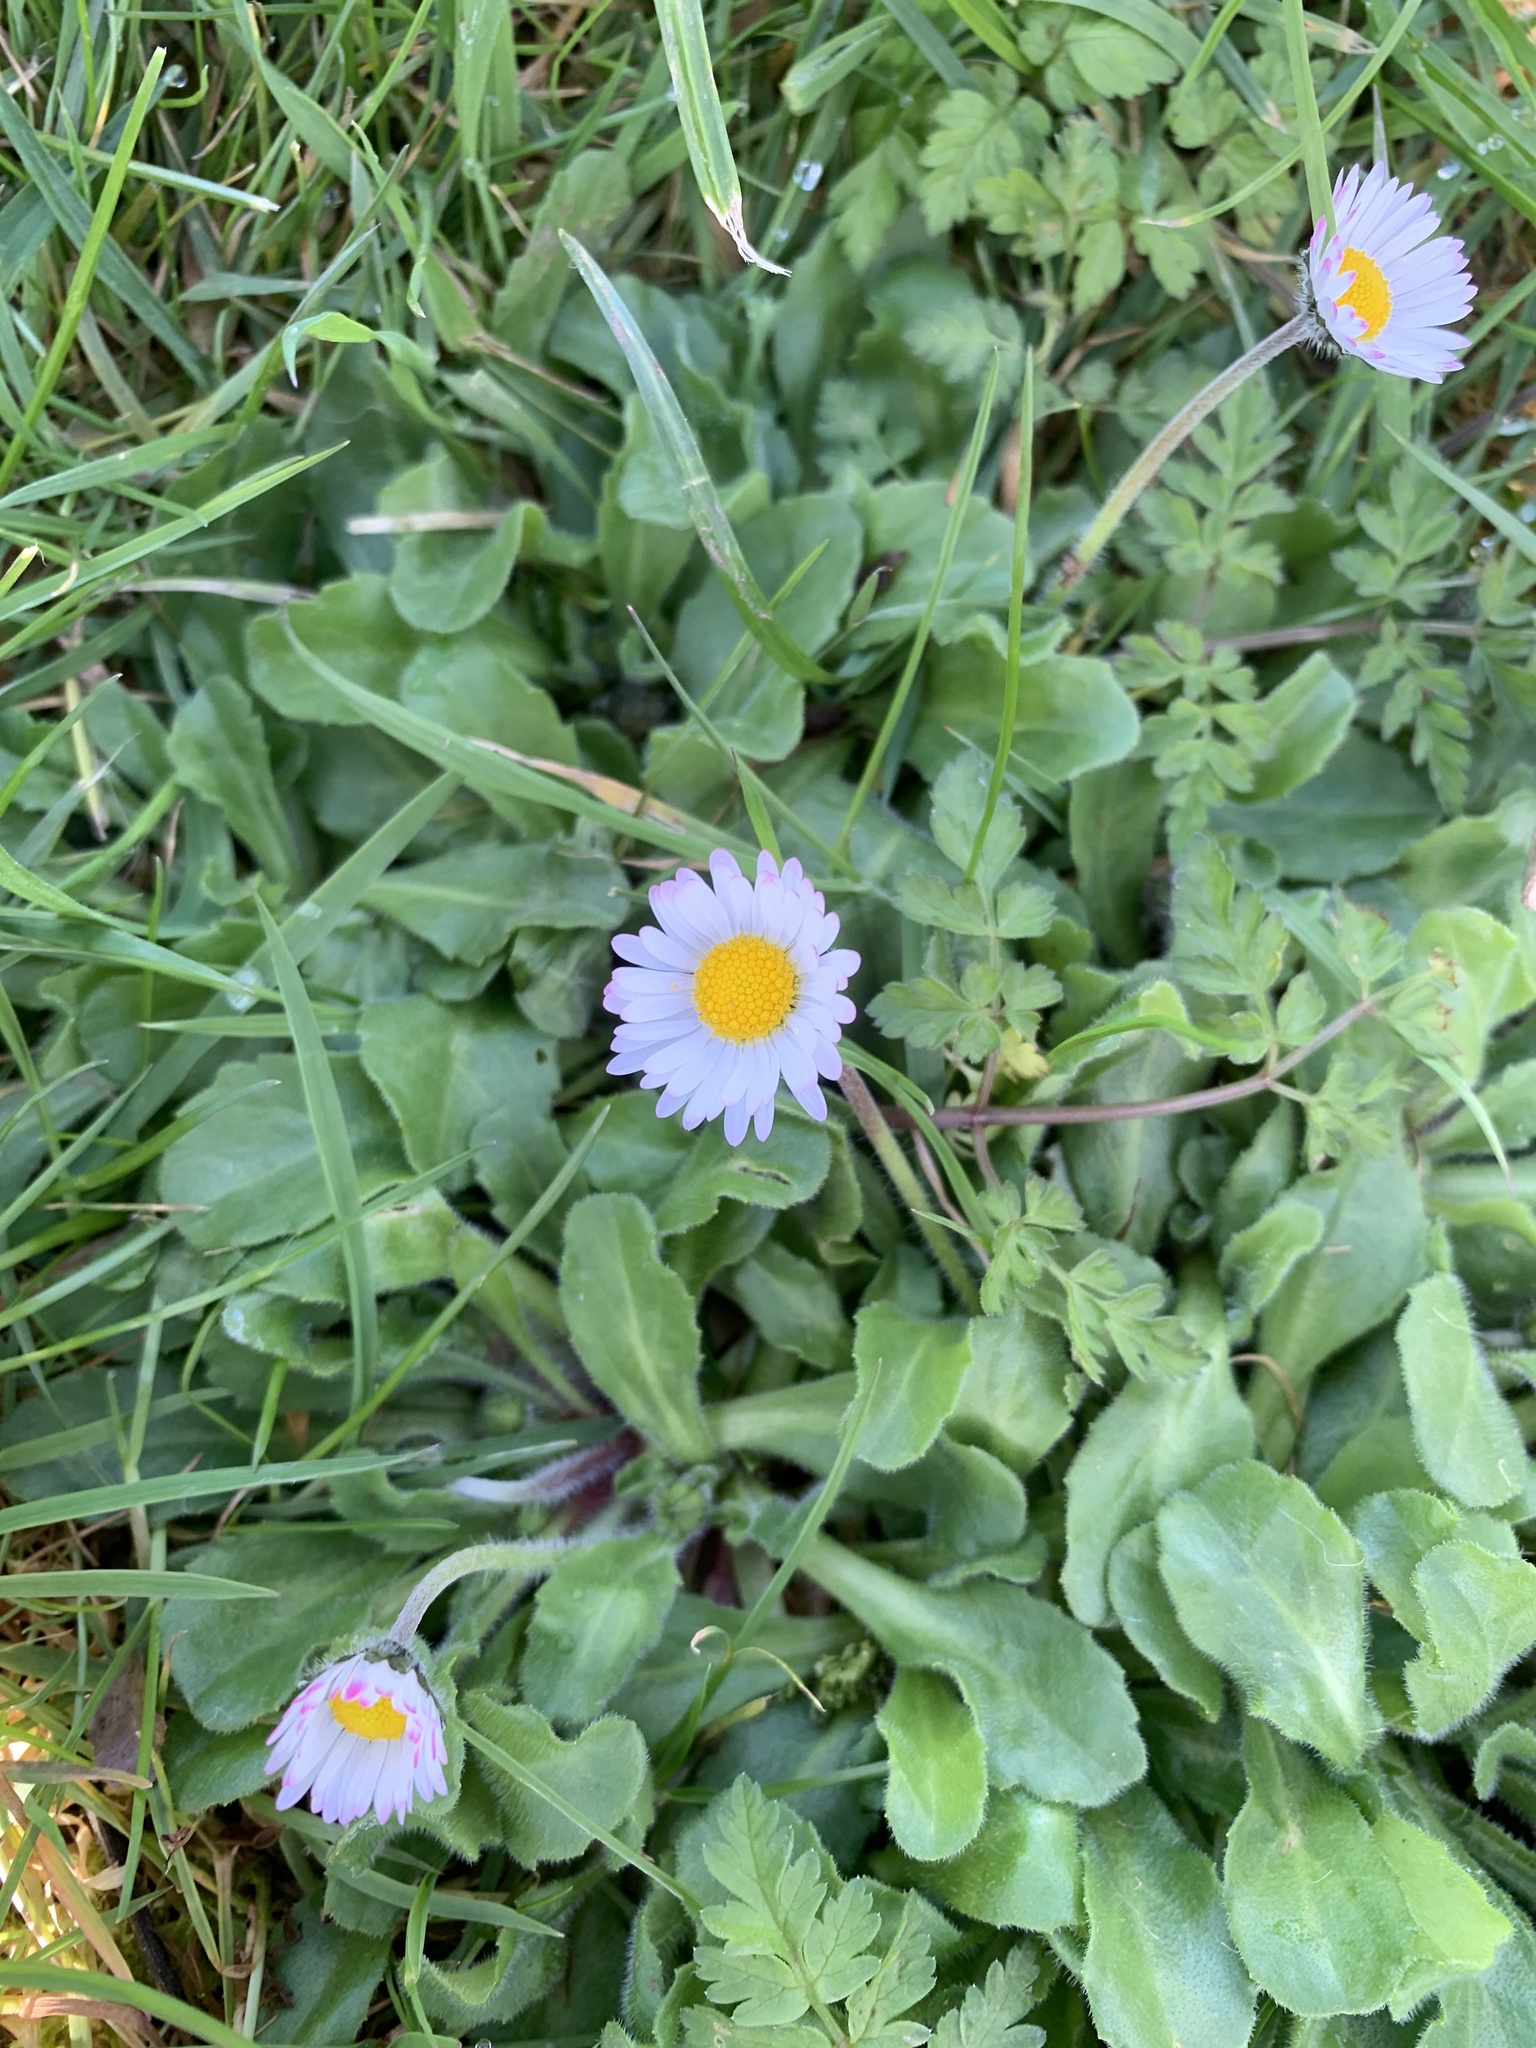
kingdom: Plantae
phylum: Tracheophyta
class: Magnoliopsida
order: Asterales
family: Asteraceae
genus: Bellis
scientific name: Bellis perennis
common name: Lawndaisy
